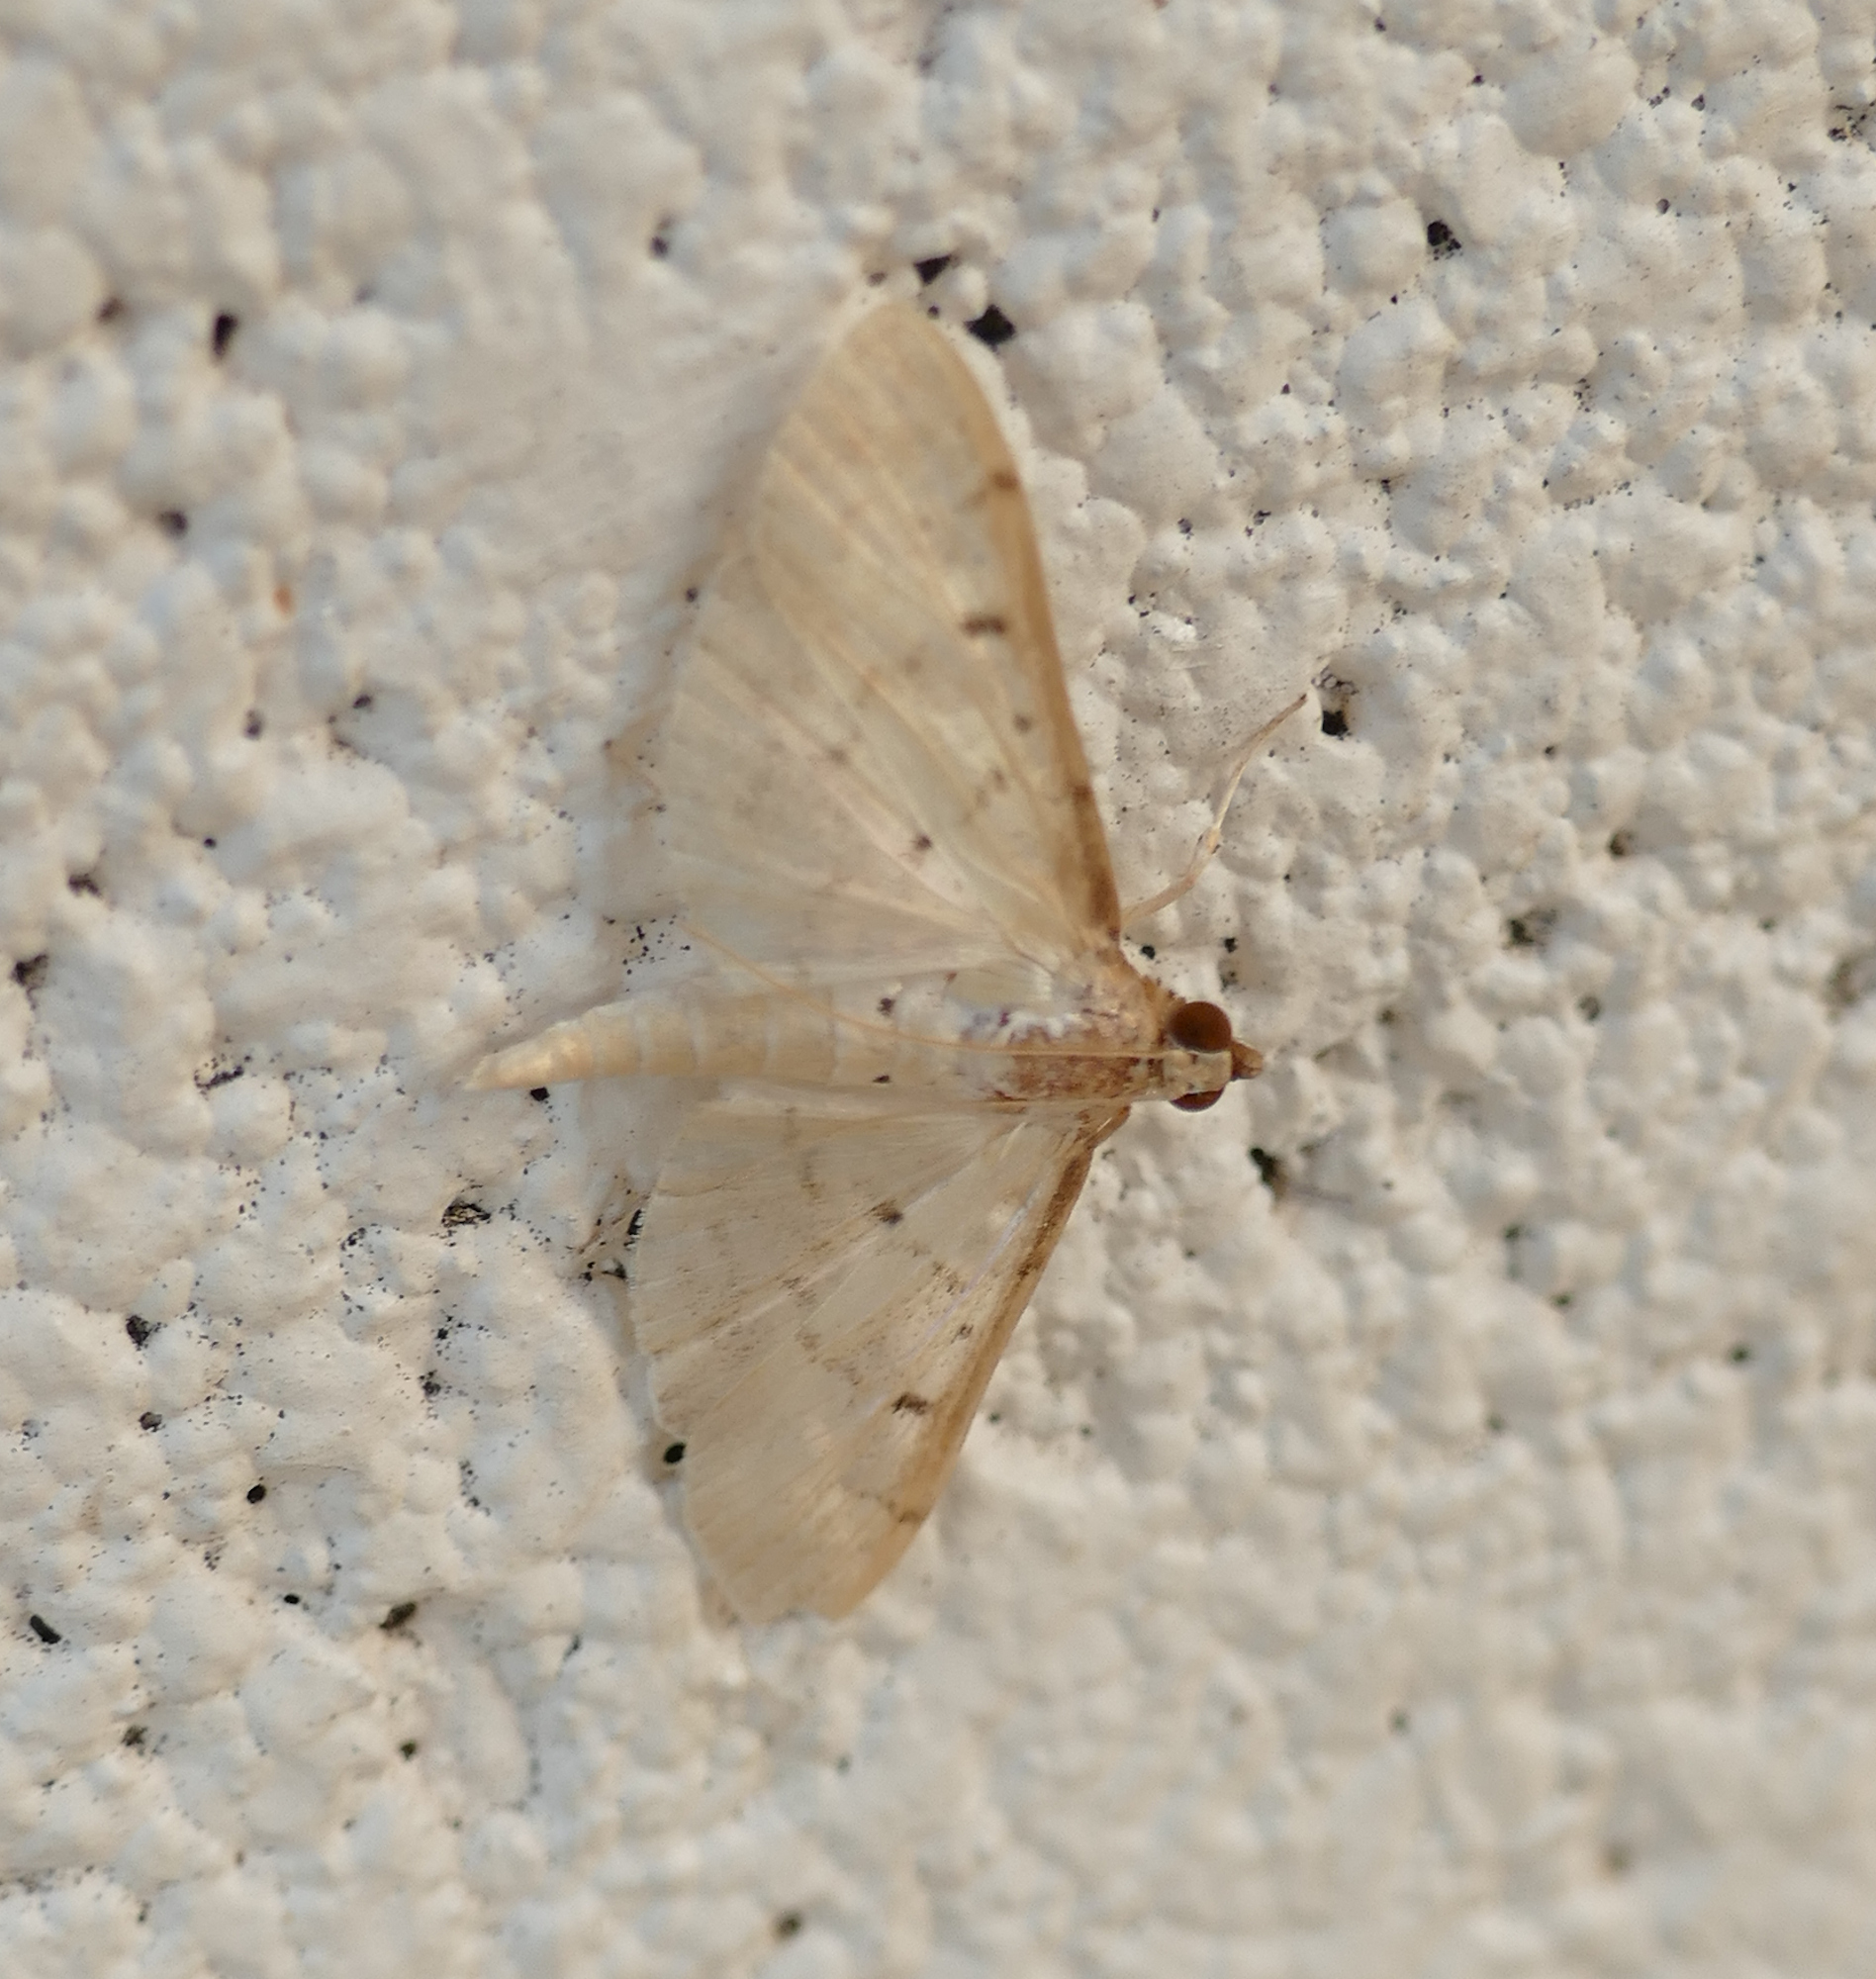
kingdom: Animalia
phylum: Arthropoda
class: Insecta
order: Lepidoptera
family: Crambidae
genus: Herpetogramma
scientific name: Herpetogramma bipunctalis
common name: Southern beet webworm
